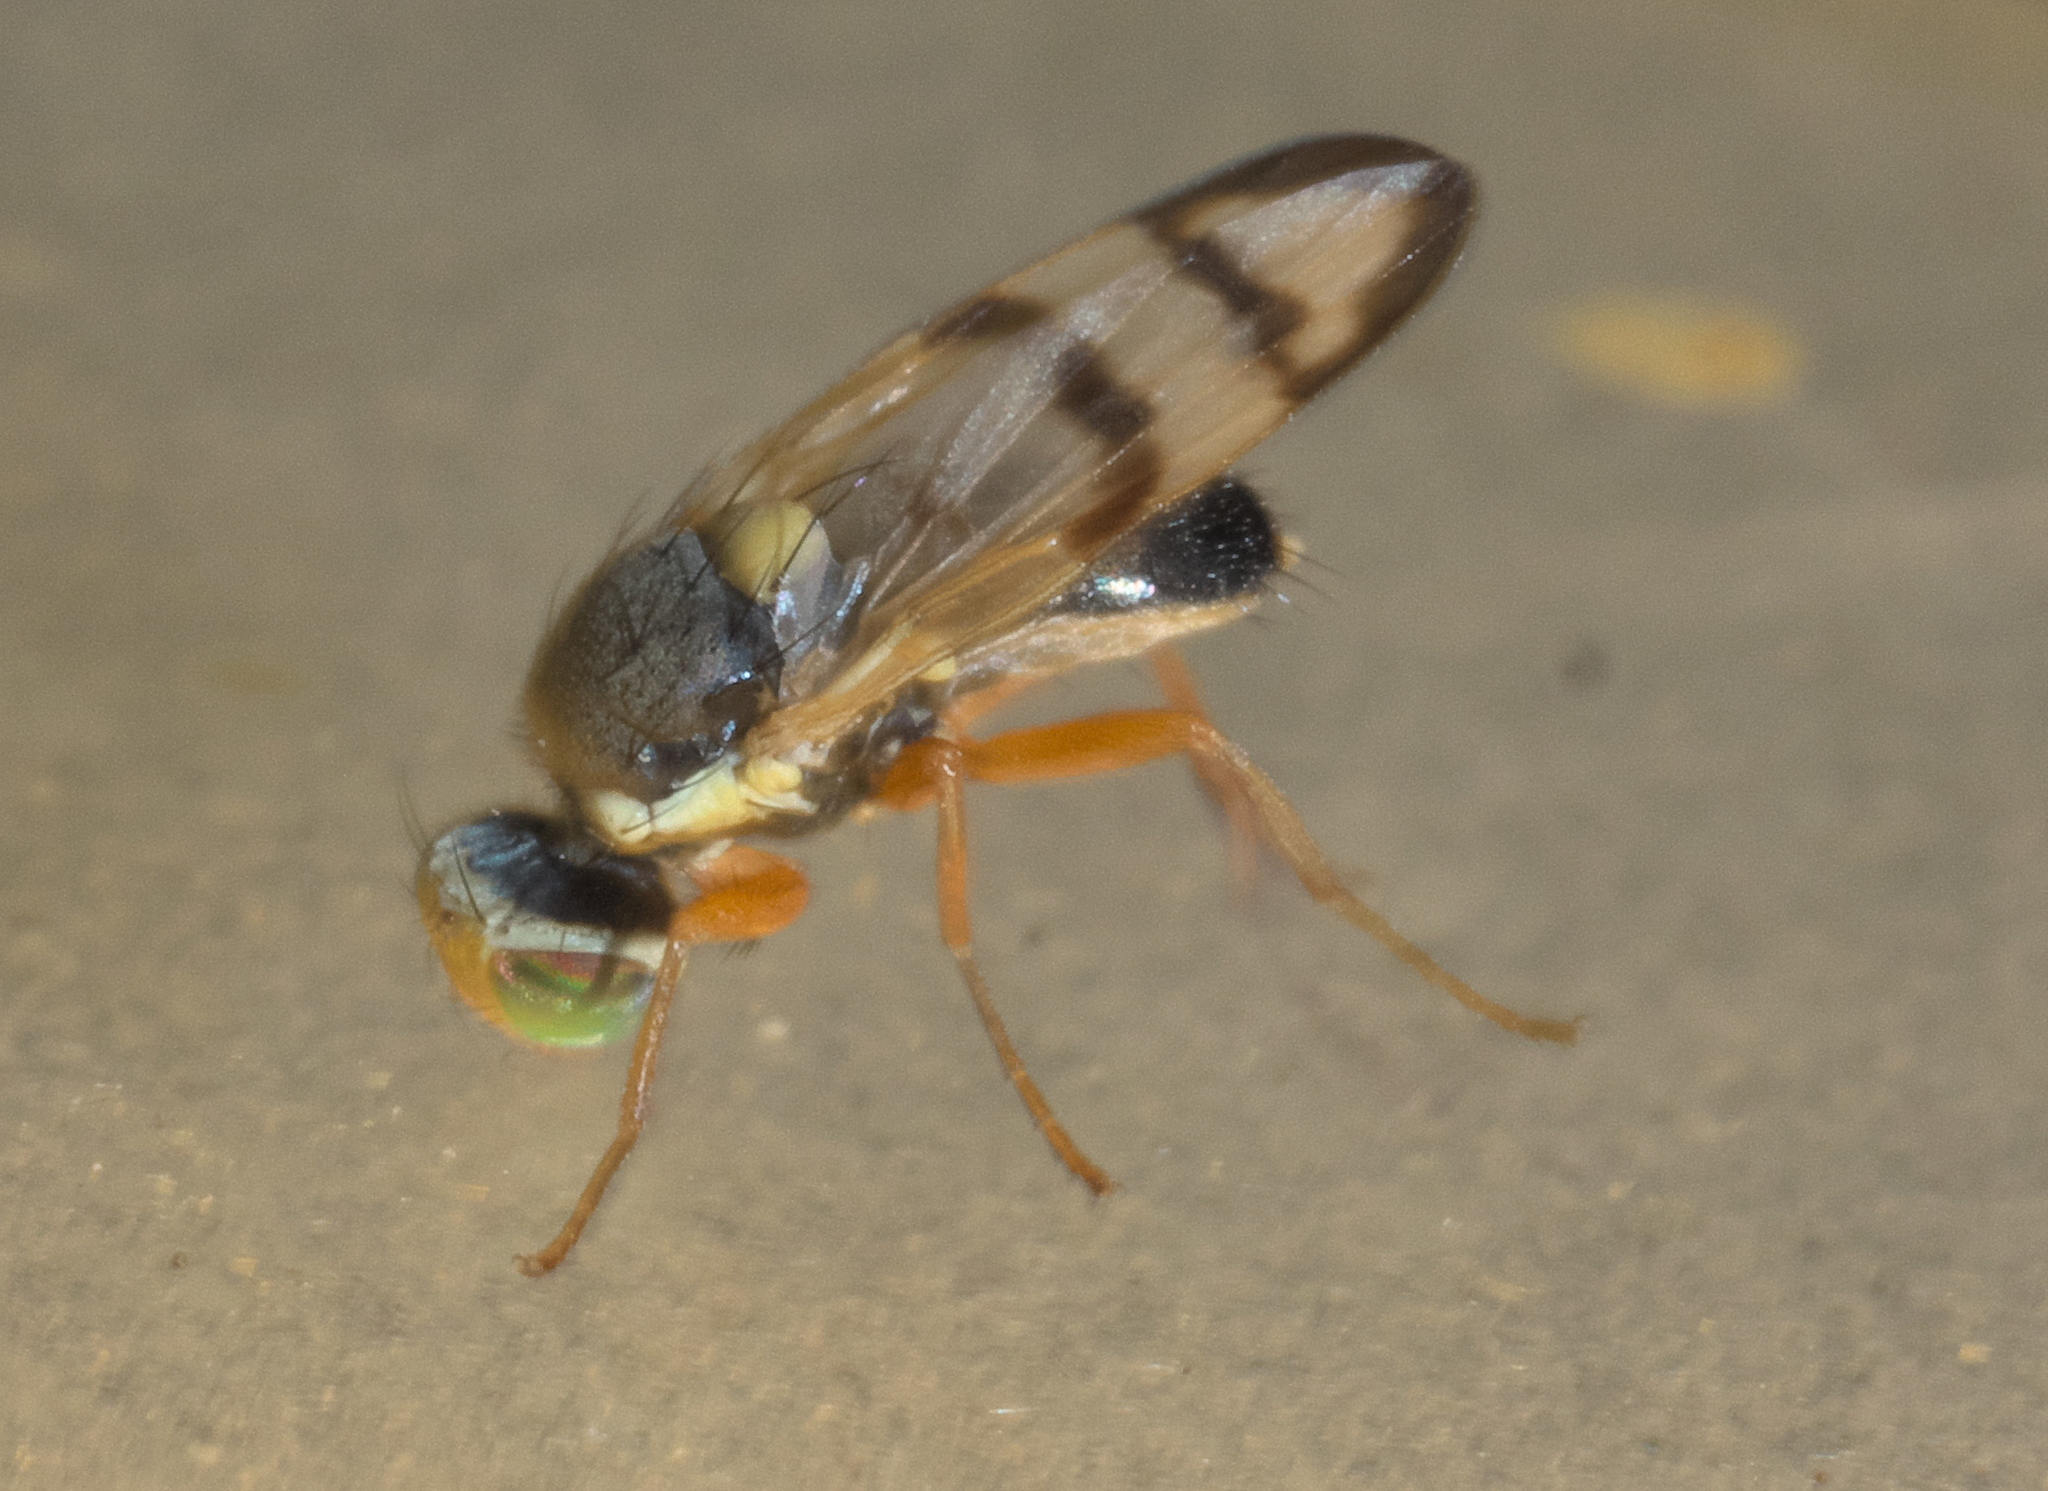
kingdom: Animalia
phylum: Arthropoda
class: Insecta
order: Diptera
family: Tephritidae
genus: Urophora
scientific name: Urophora stylata
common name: Fruit fly
